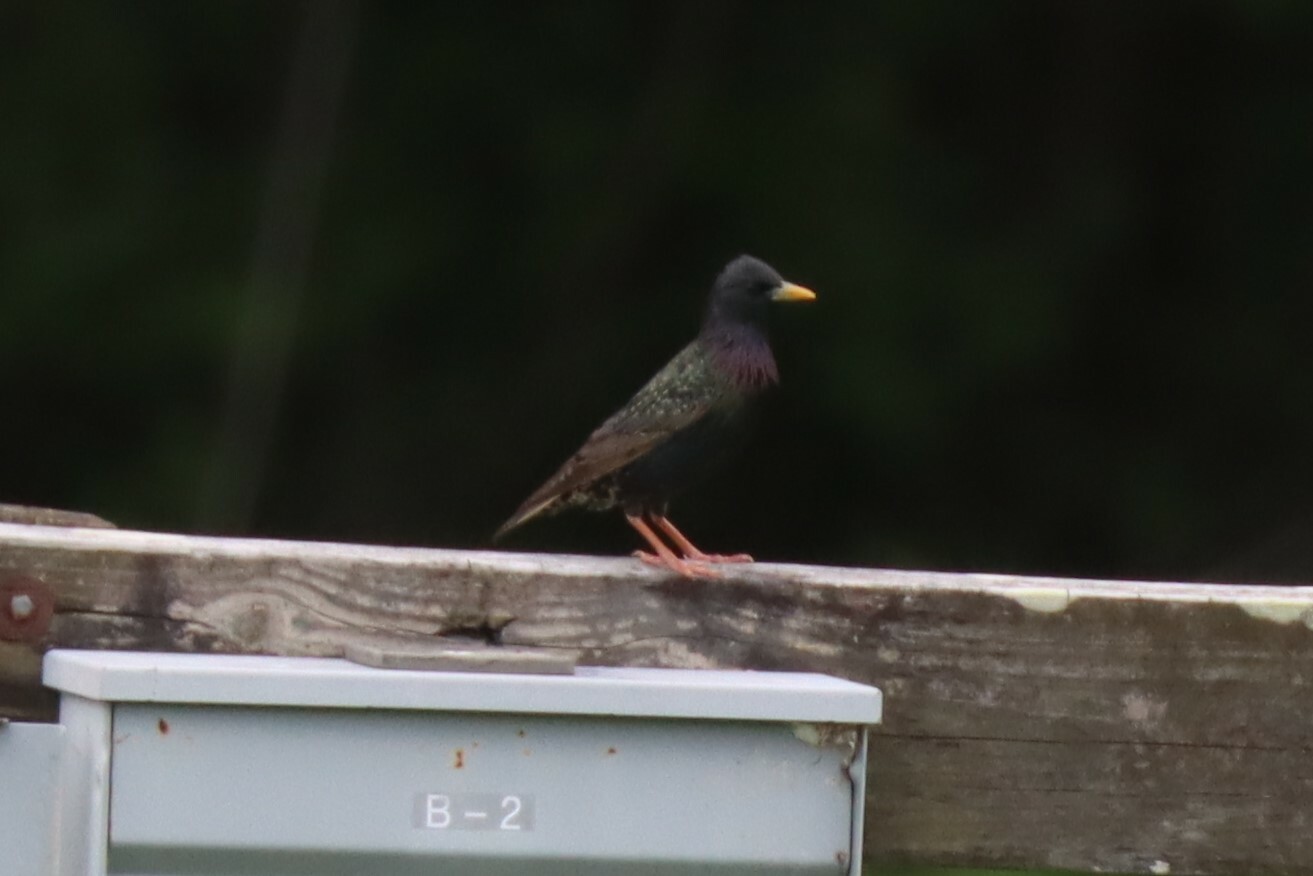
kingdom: Animalia
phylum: Chordata
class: Aves
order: Passeriformes
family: Sturnidae
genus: Sturnus
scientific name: Sturnus vulgaris
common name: Common starling
